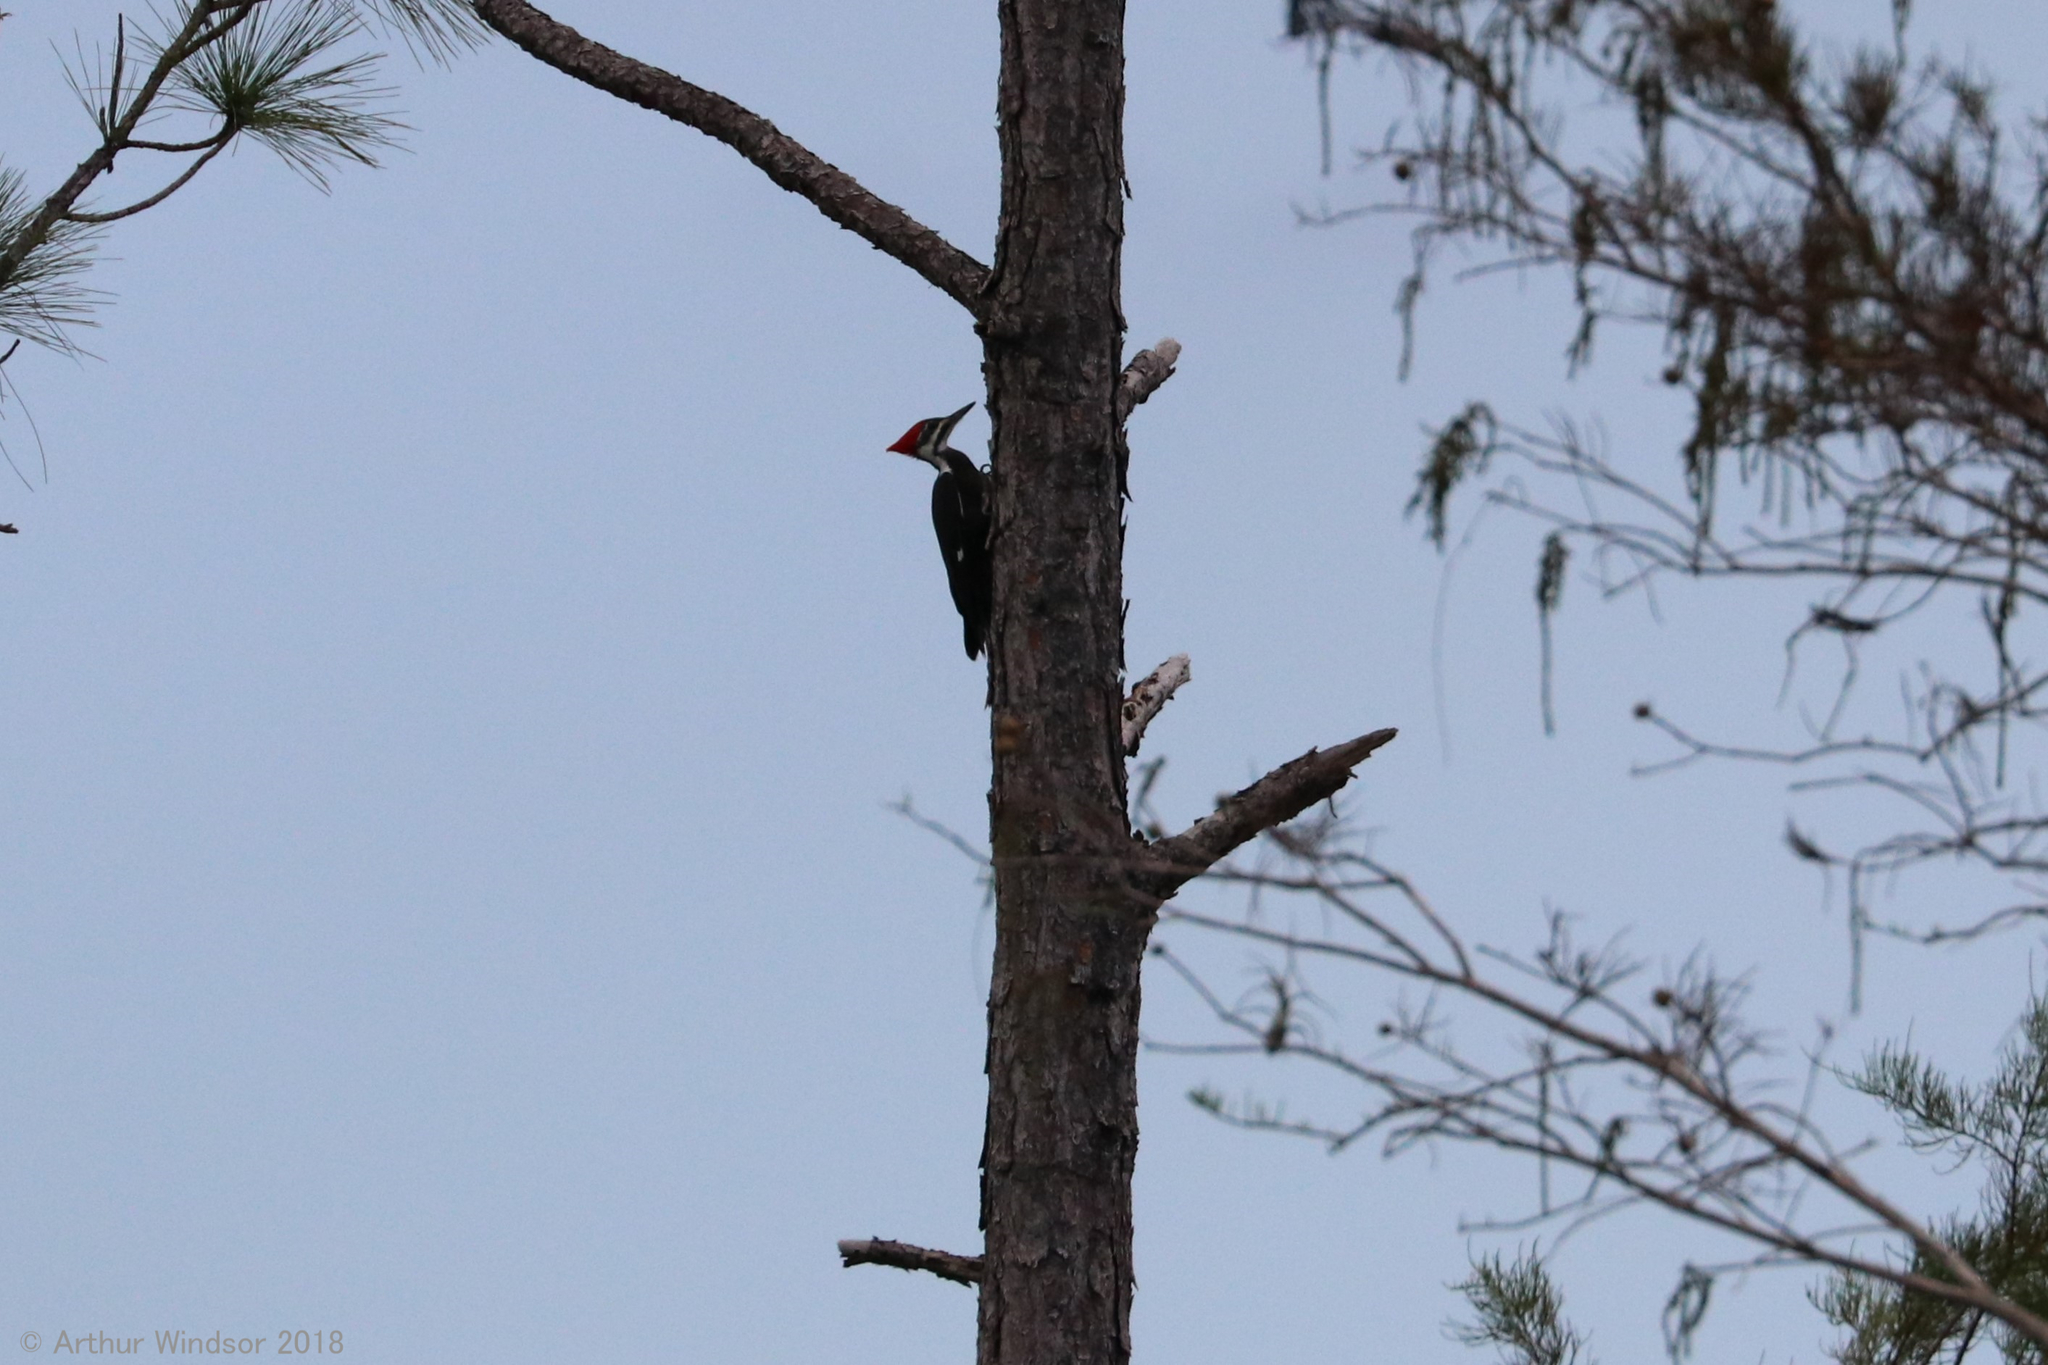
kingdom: Animalia
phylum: Chordata
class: Aves
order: Piciformes
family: Picidae
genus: Dryocopus
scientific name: Dryocopus pileatus
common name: Pileated woodpecker
